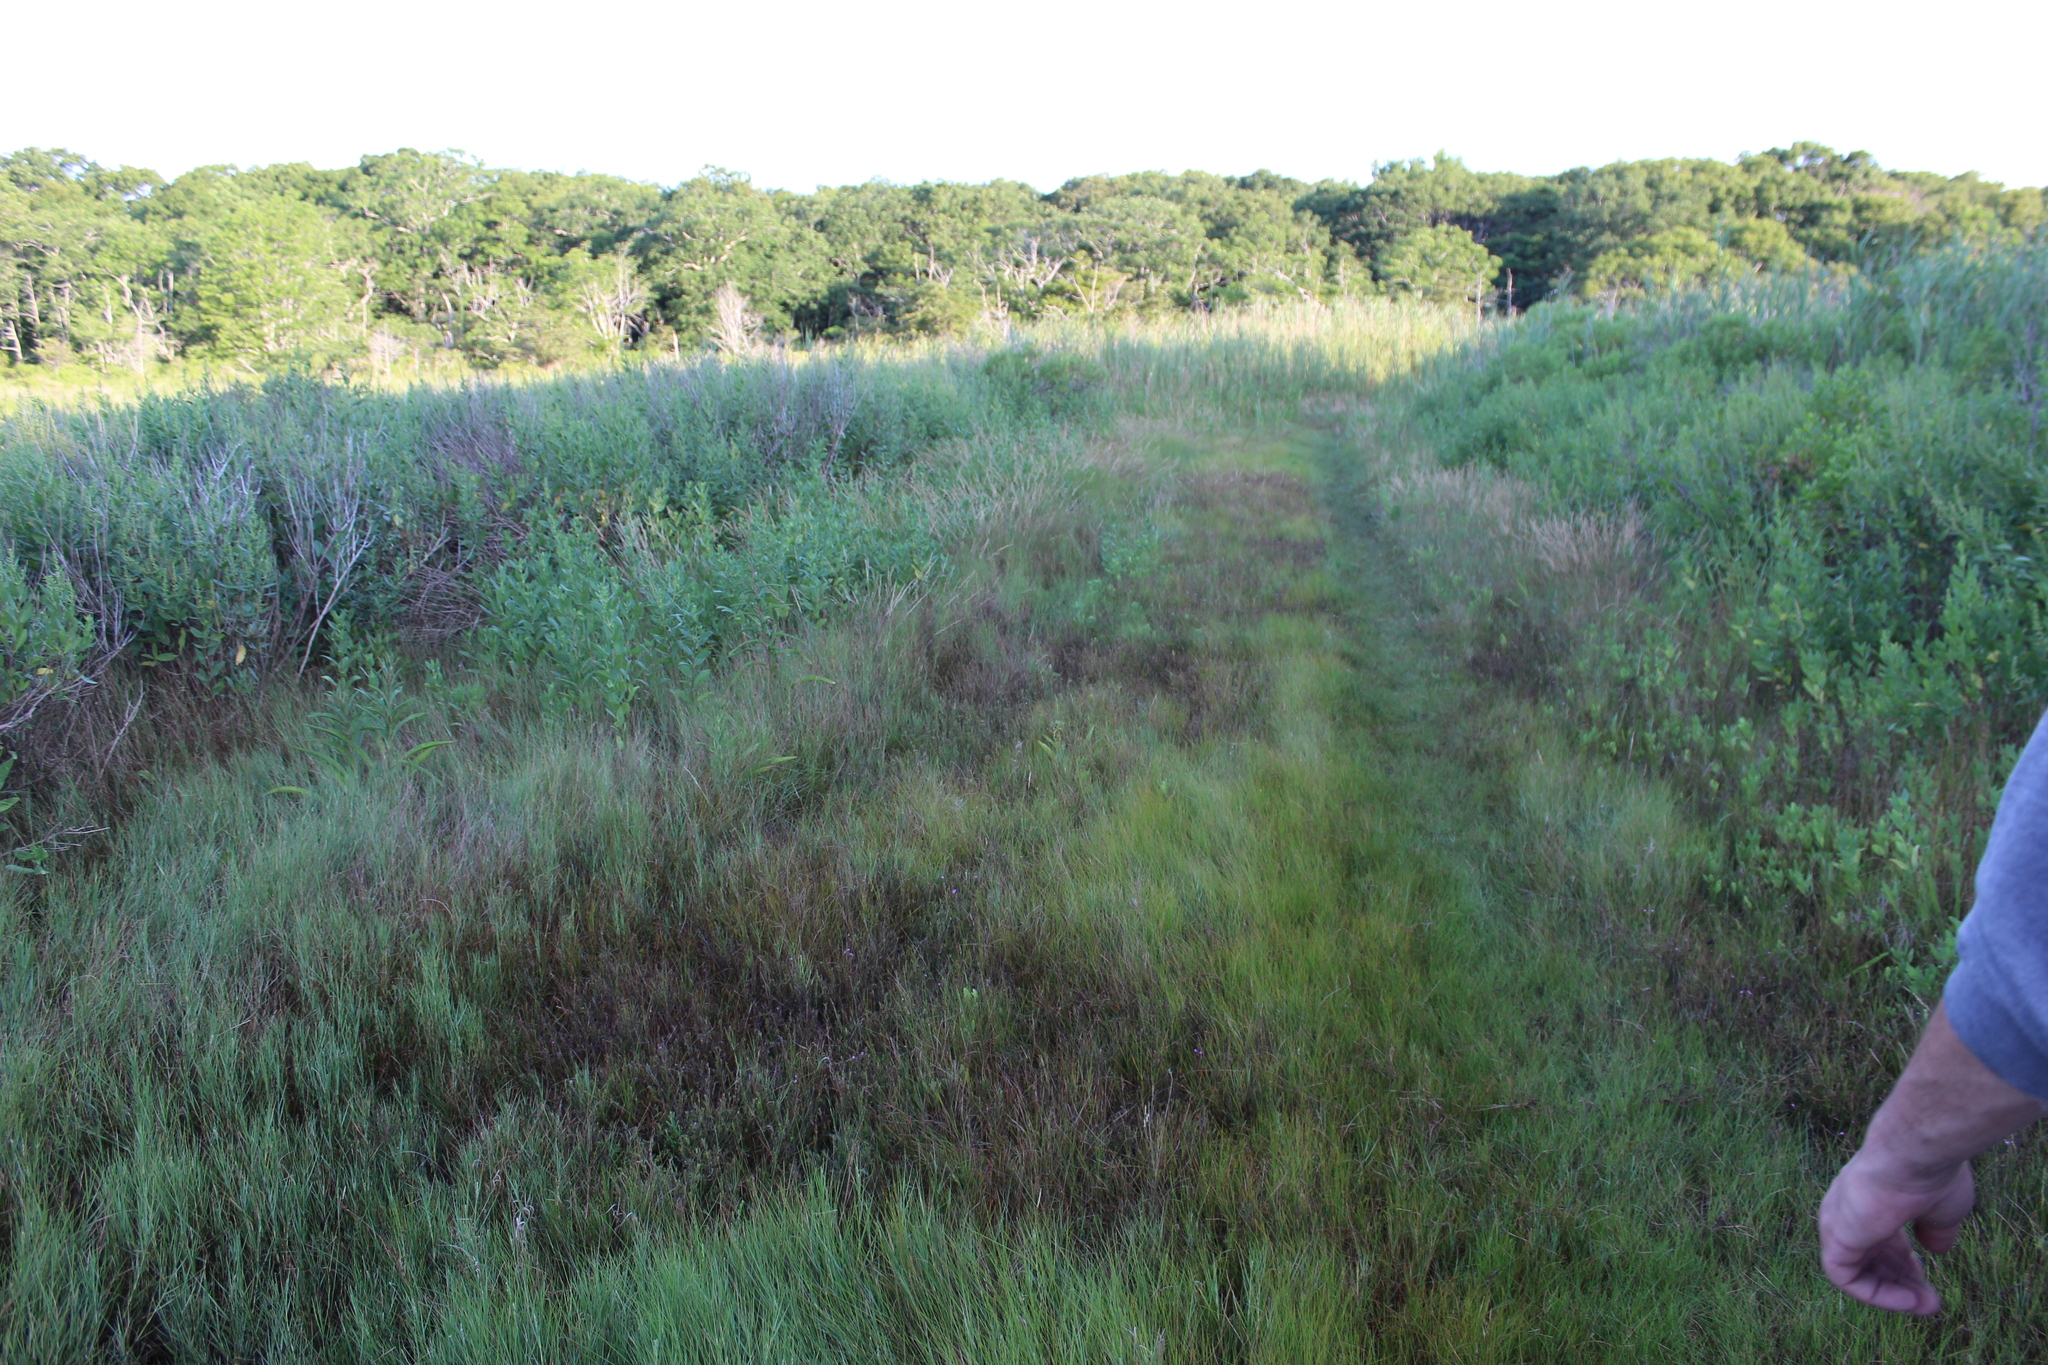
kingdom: Plantae
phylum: Tracheophyta
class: Magnoliopsida
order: Lamiales
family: Orobanchaceae
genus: Agalinis
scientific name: Agalinis maritima
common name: Saltmarsh agalinis
